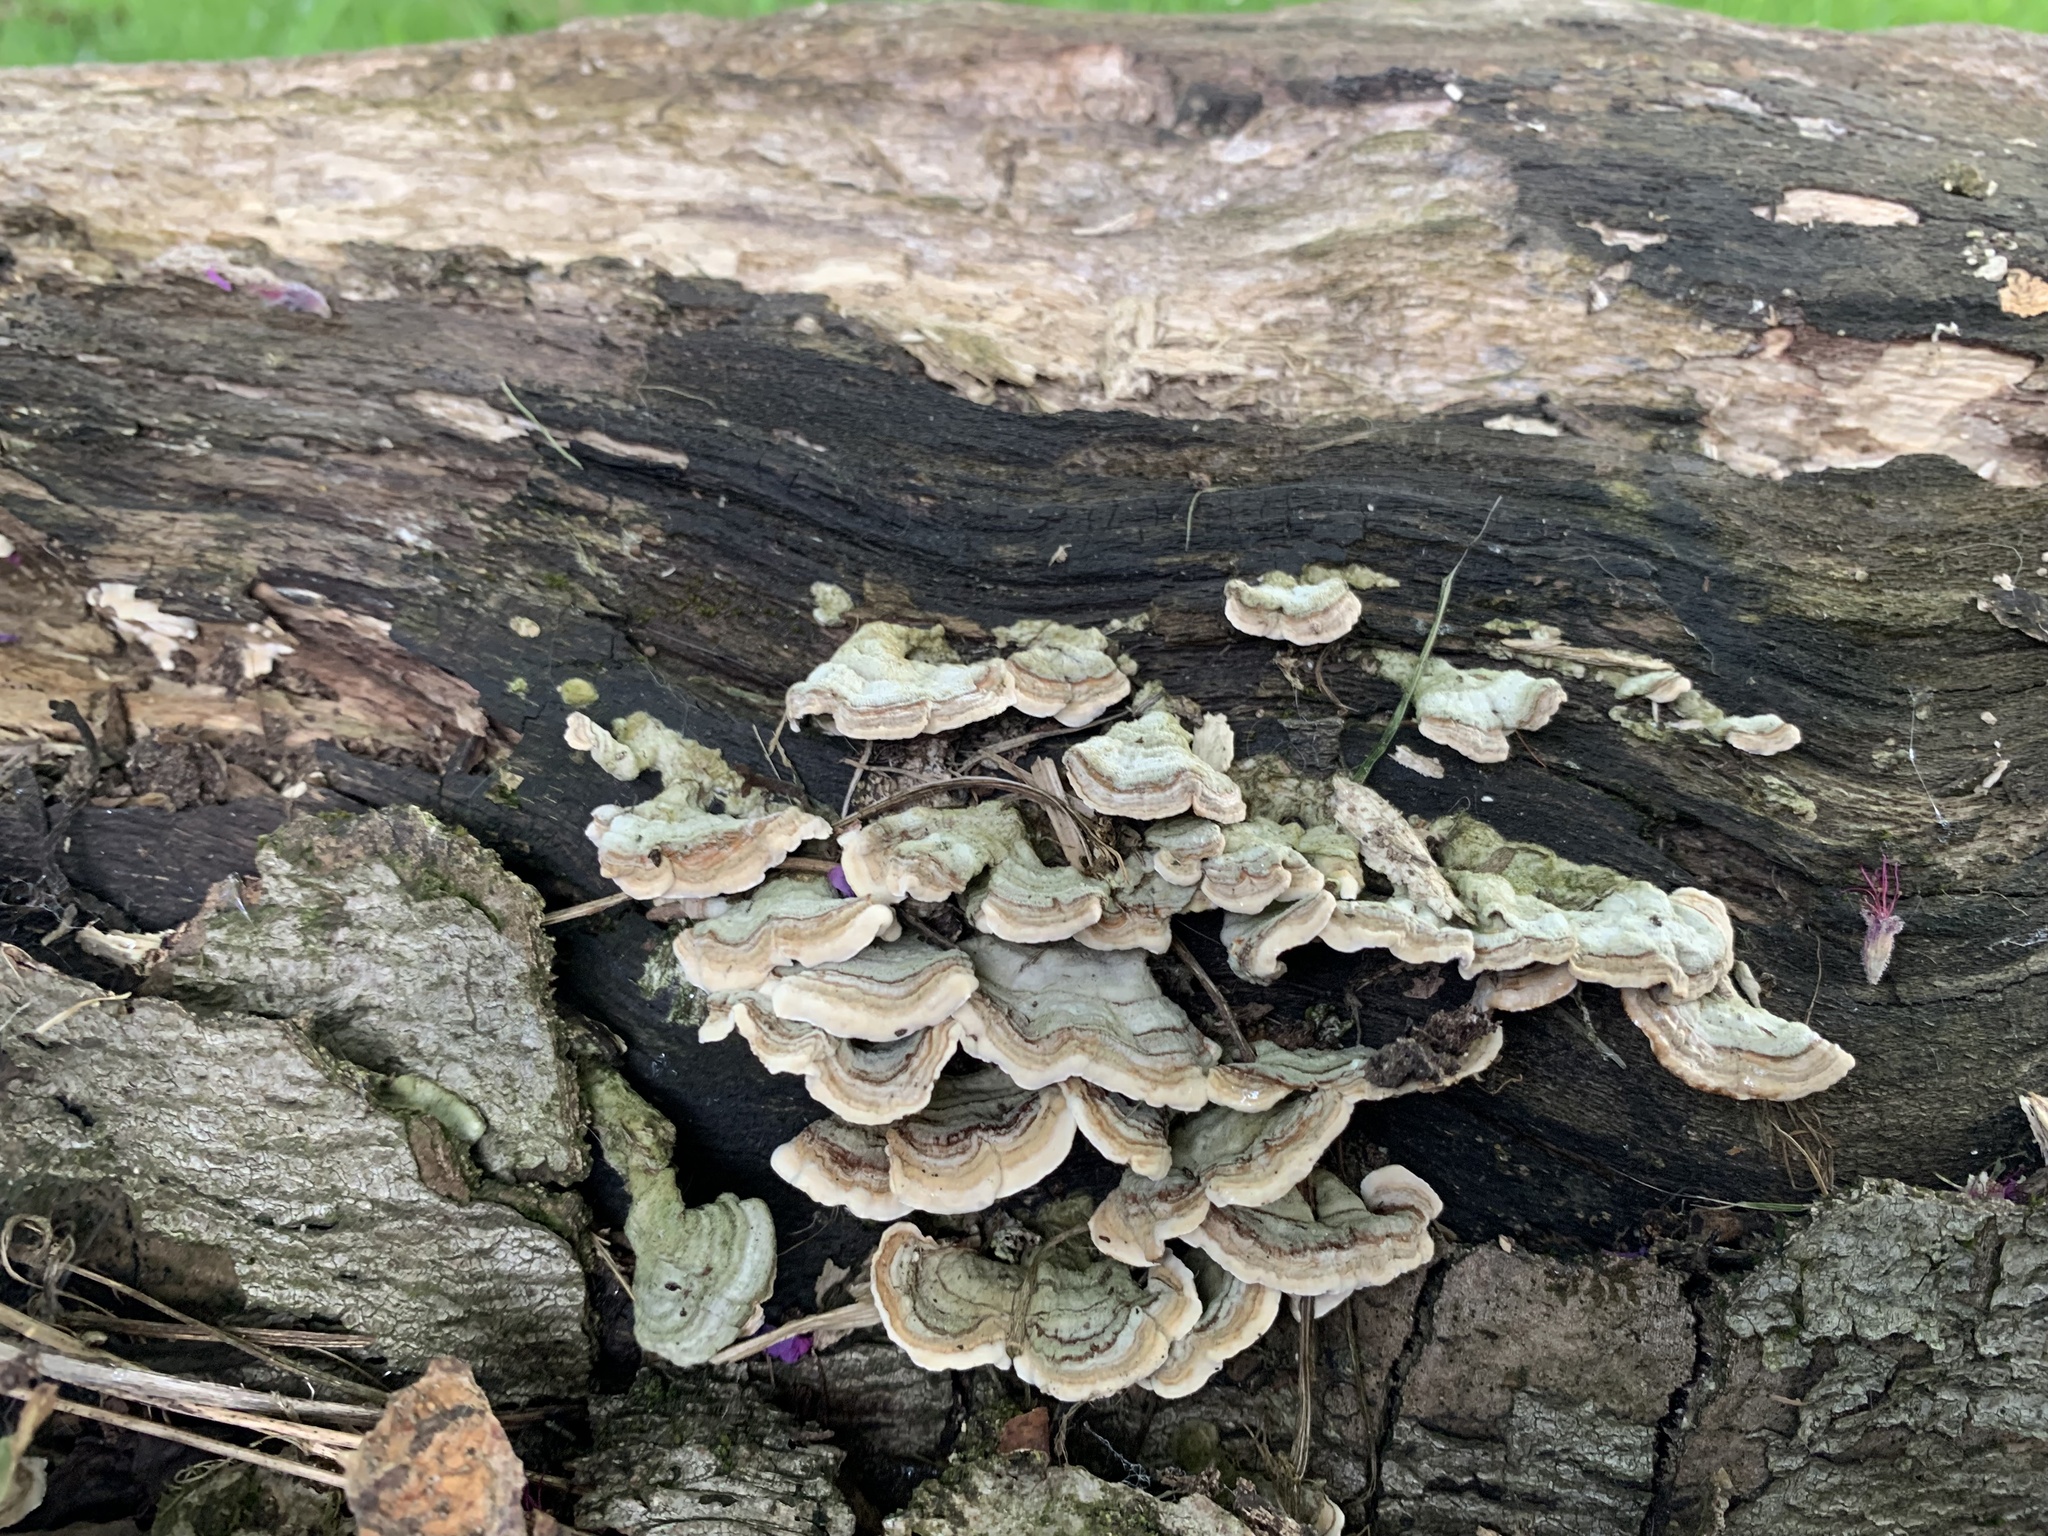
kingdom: Fungi
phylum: Basidiomycota
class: Agaricomycetes
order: Polyporales
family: Polyporaceae
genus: Trametes
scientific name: Trametes versicolor
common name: Turkeytail
